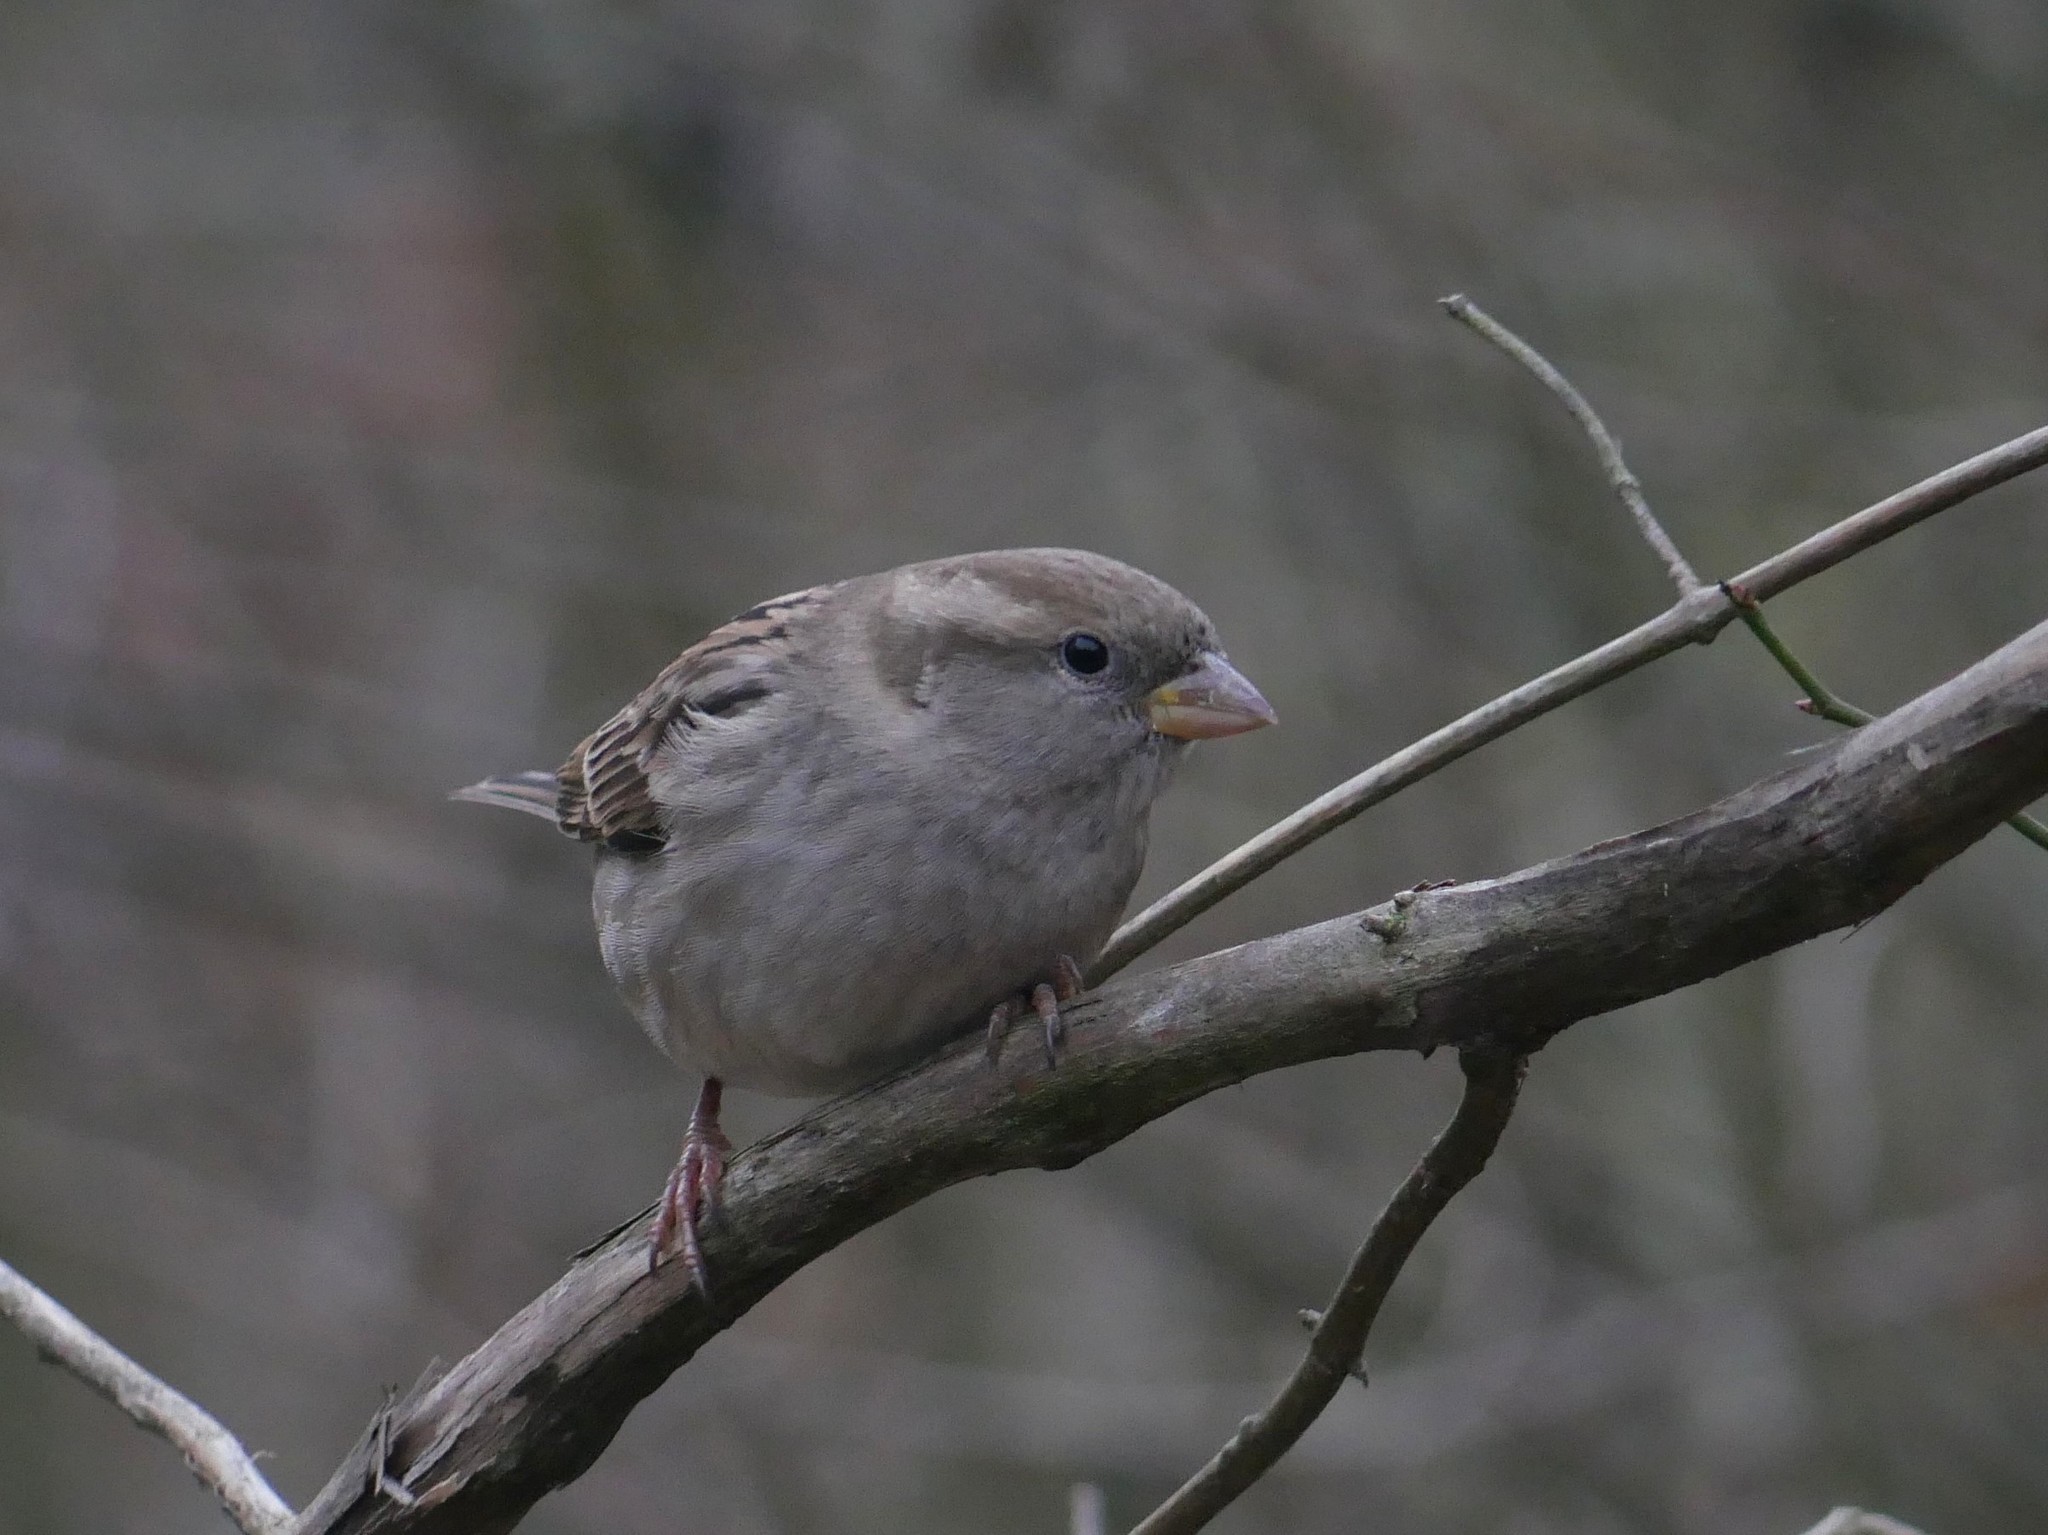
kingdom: Animalia
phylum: Chordata
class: Aves
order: Passeriformes
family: Passeridae
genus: Passer
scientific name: Passer domesticus
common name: House sparrow
